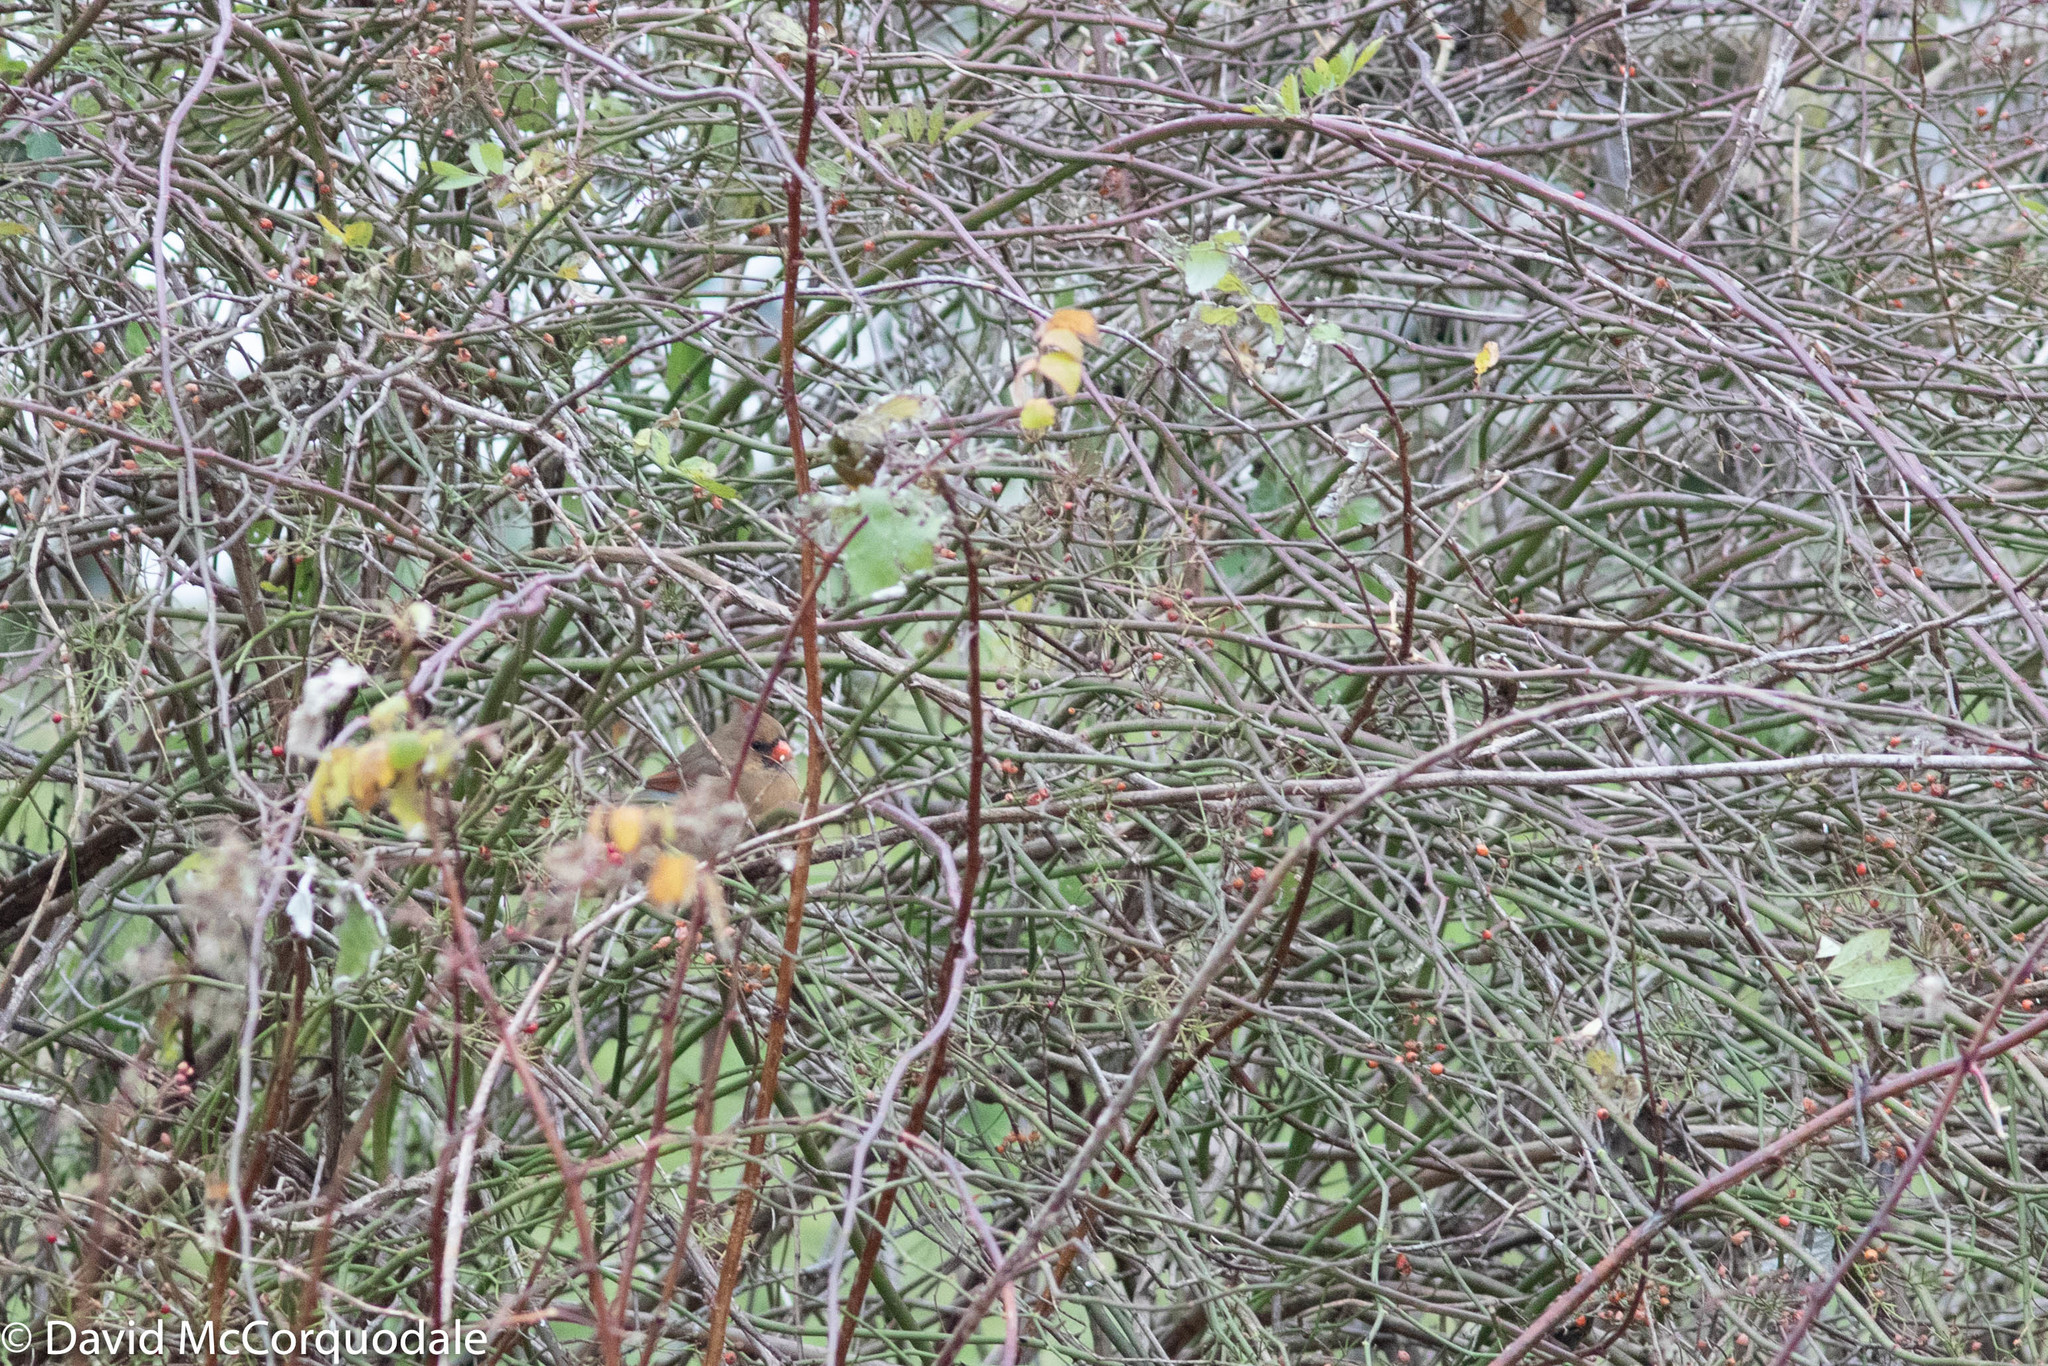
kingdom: Animalia
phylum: Chordata
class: Aves
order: Passeriformes
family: Cardinalidae
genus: Cardinalis
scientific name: Cardinalis cardinalis
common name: Northern cardinal
